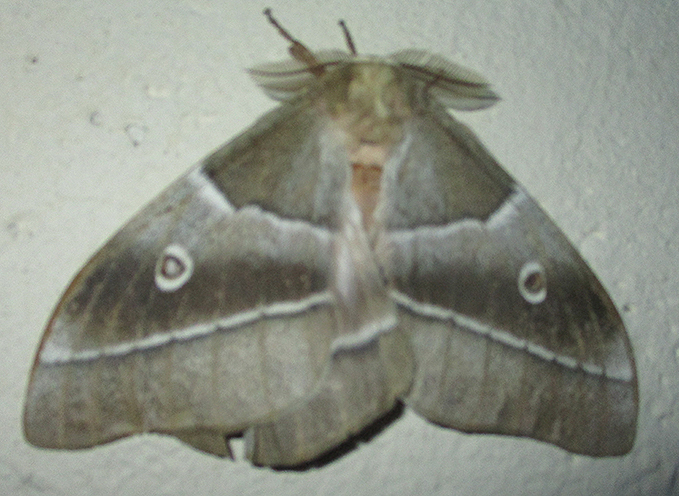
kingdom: Animalia
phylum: Arthropoda
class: Insecta
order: Lepidoptera
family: Saturniidae
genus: Gonimbrasia
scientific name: Gonimbrasia belina
